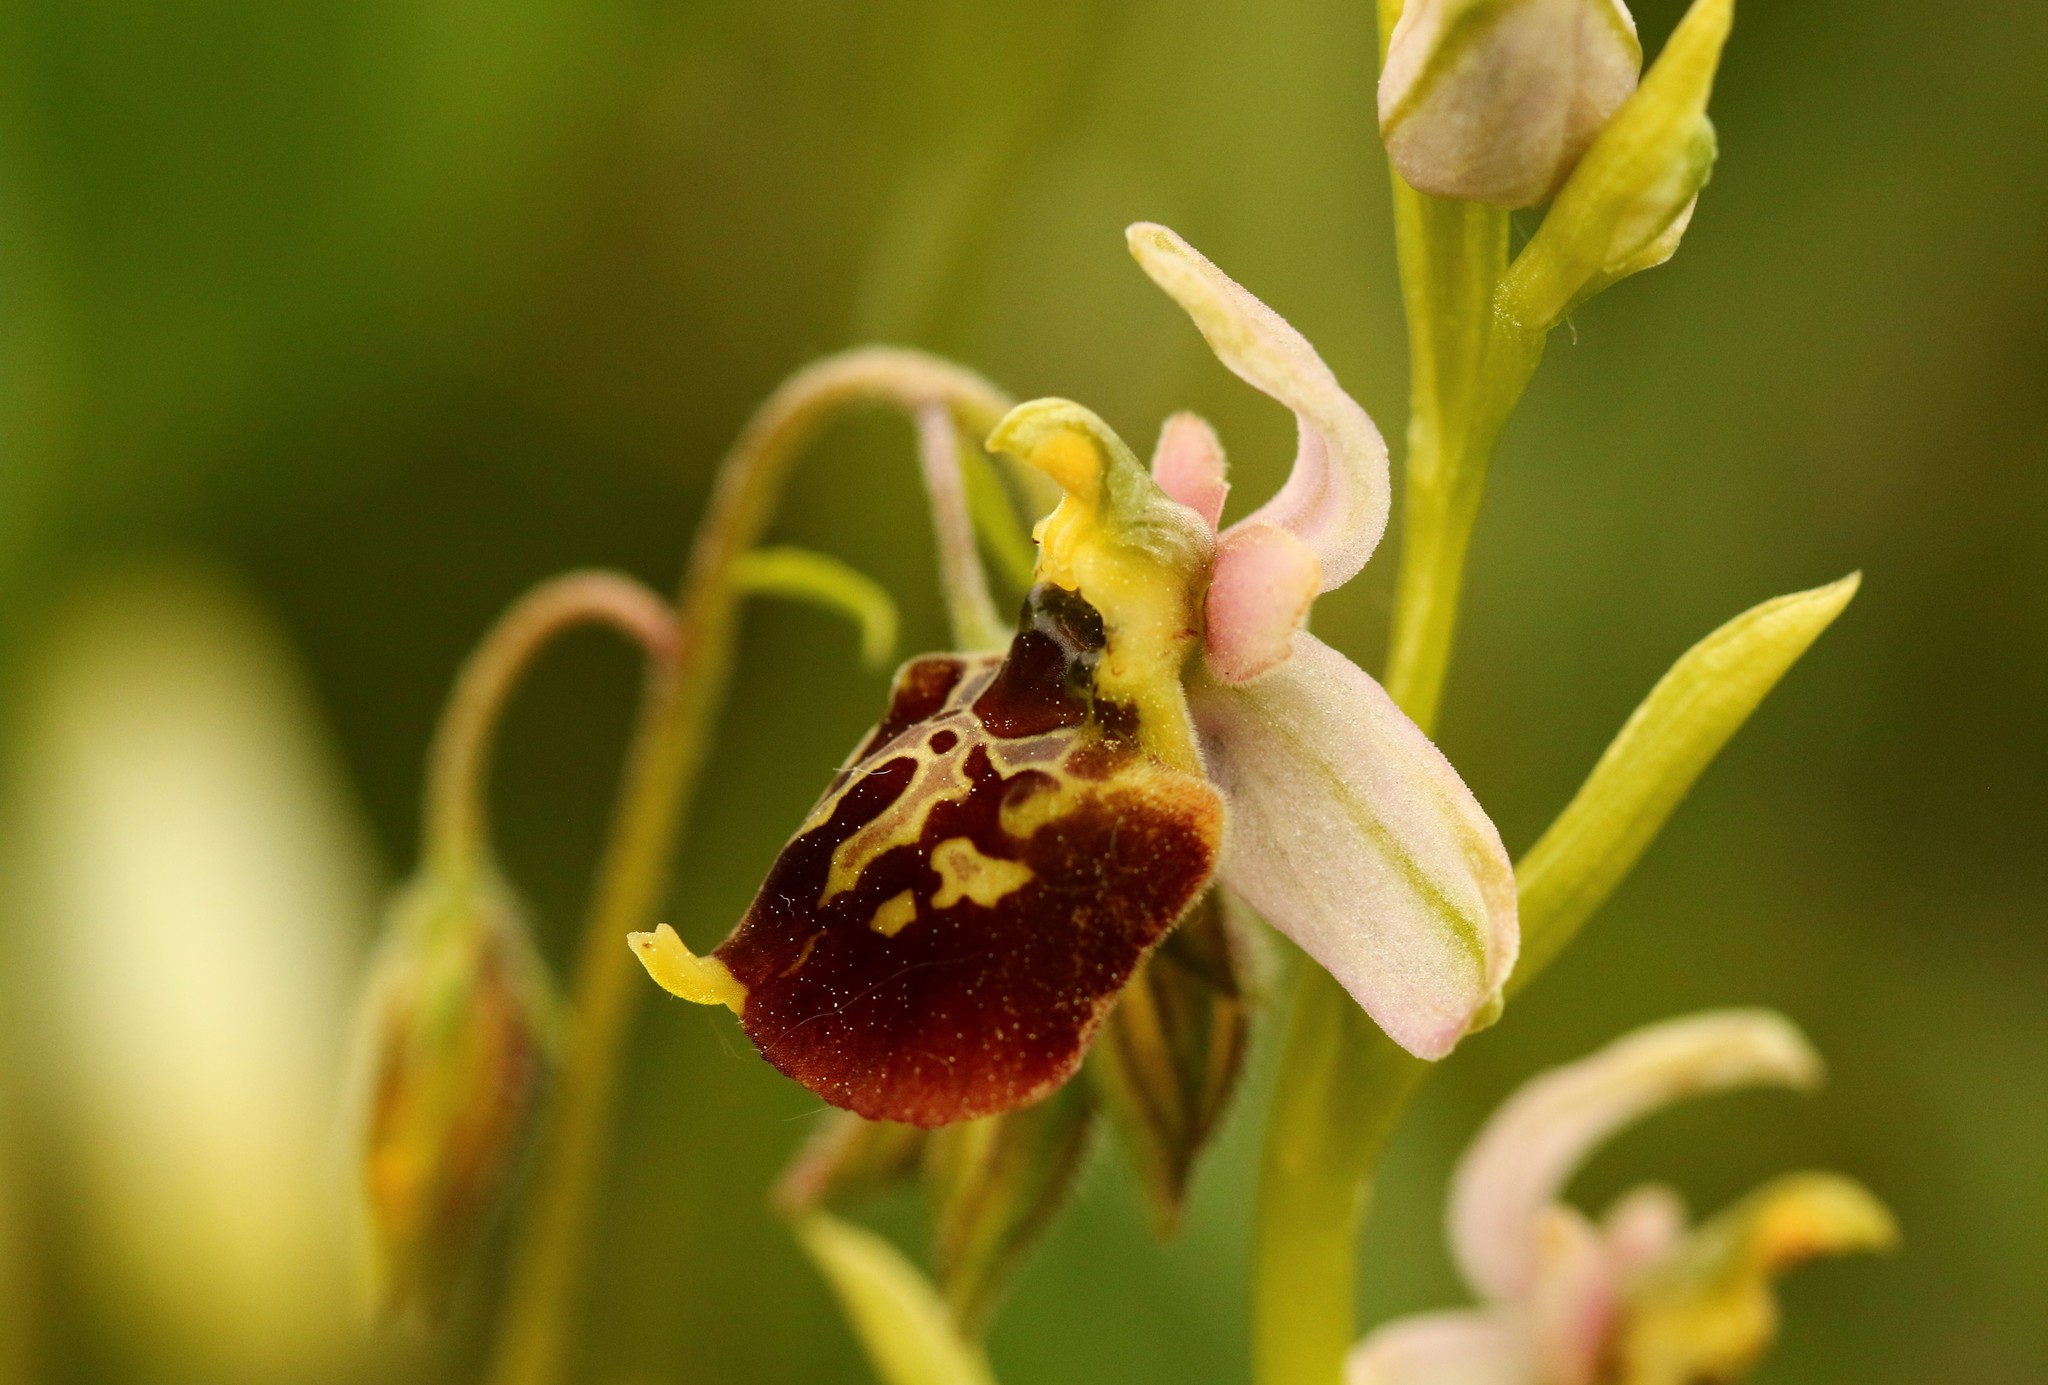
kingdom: Plantae
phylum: Tracheophyta
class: Liliopsida
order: Asparagales
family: Orchidaceae
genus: Ophrys
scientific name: Ophrys holosericea
